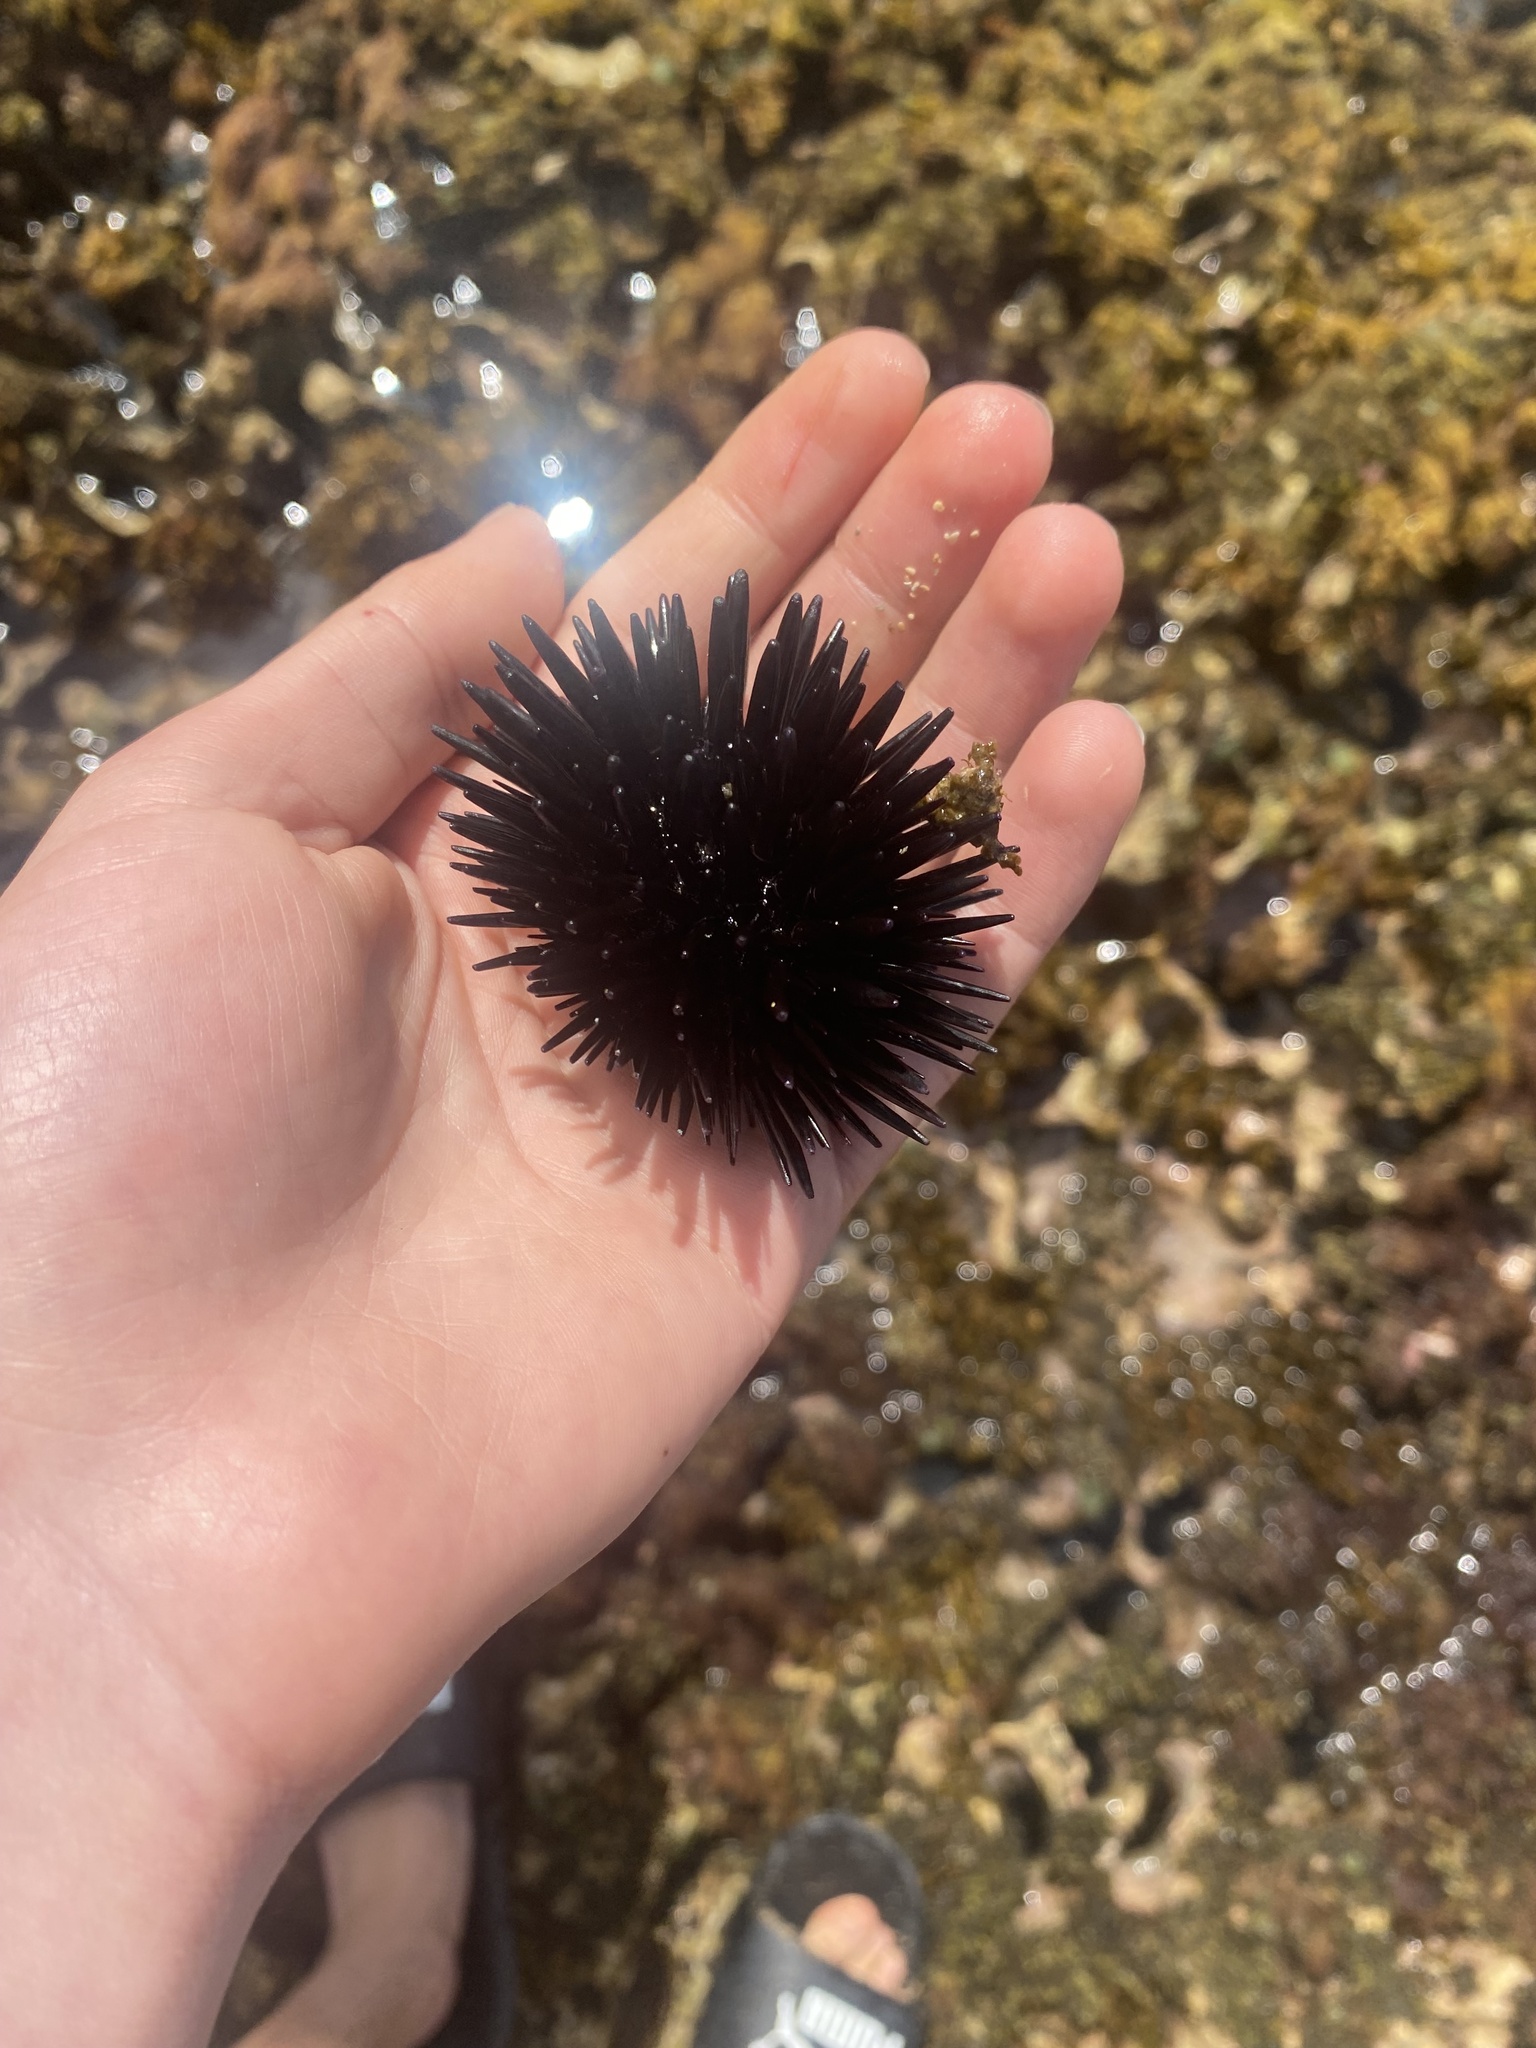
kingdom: Animalia
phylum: Echinodermata
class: Echinoidea
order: Camarodonta
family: Echinometridae
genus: Echinometra
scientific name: Echinometra oblonga
